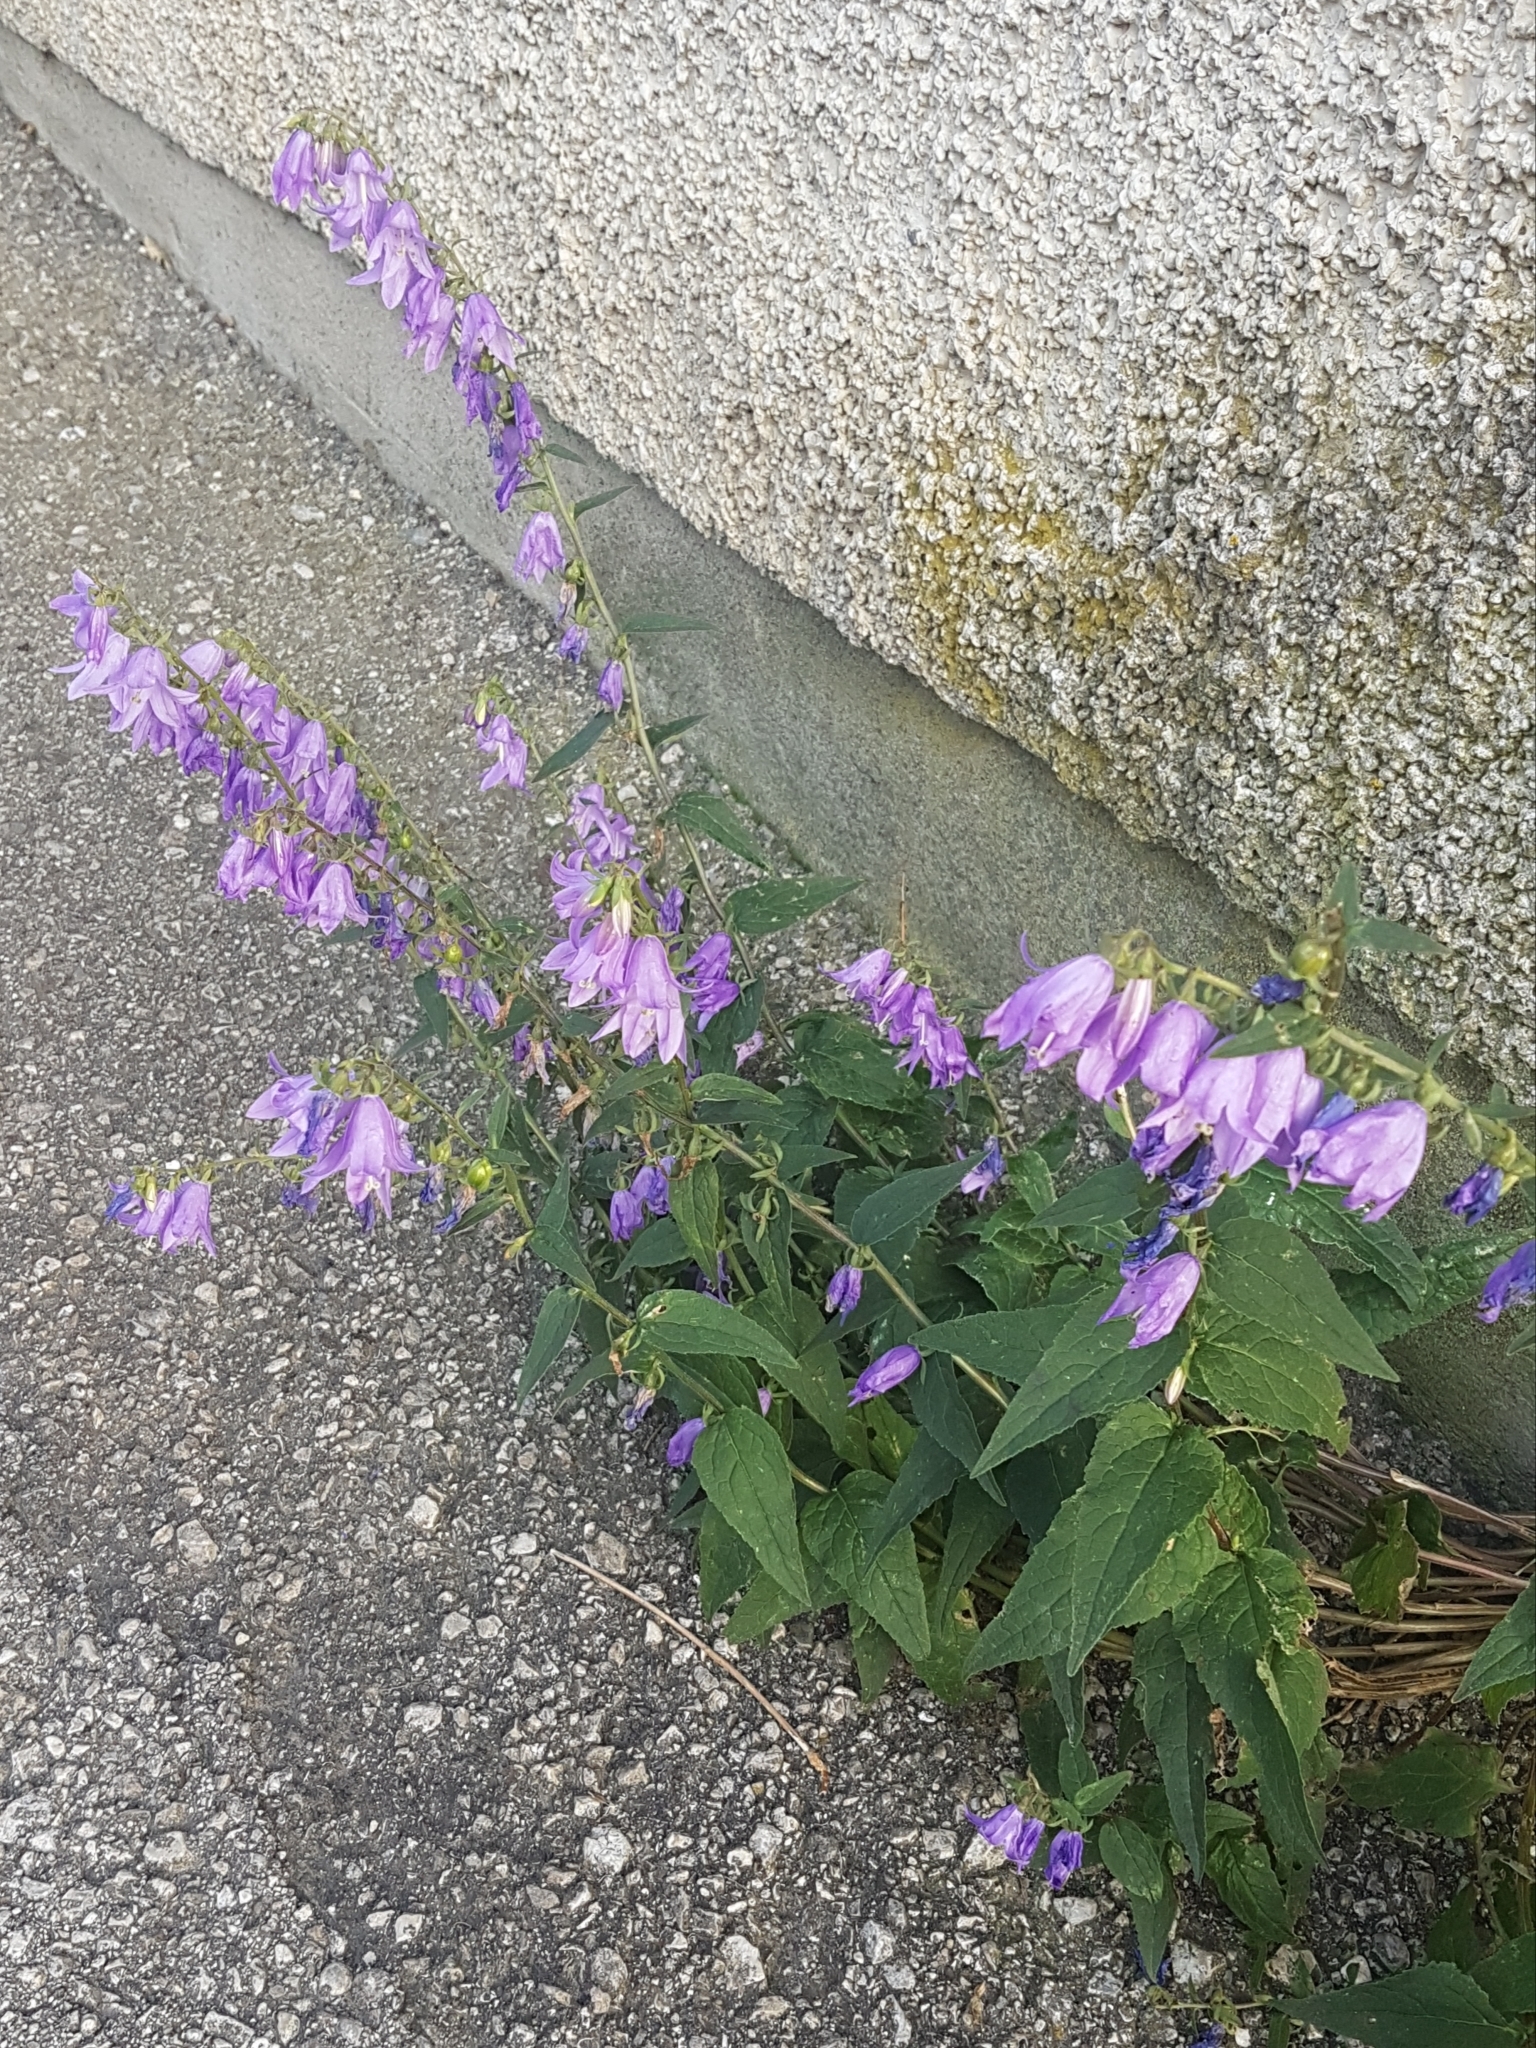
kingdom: Plantae
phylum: Tracheophyta
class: Magnoliopsida
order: Asterales
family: Campanulaceae
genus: Campanula
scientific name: Campanula rapunculoides
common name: Creeping bellflower
